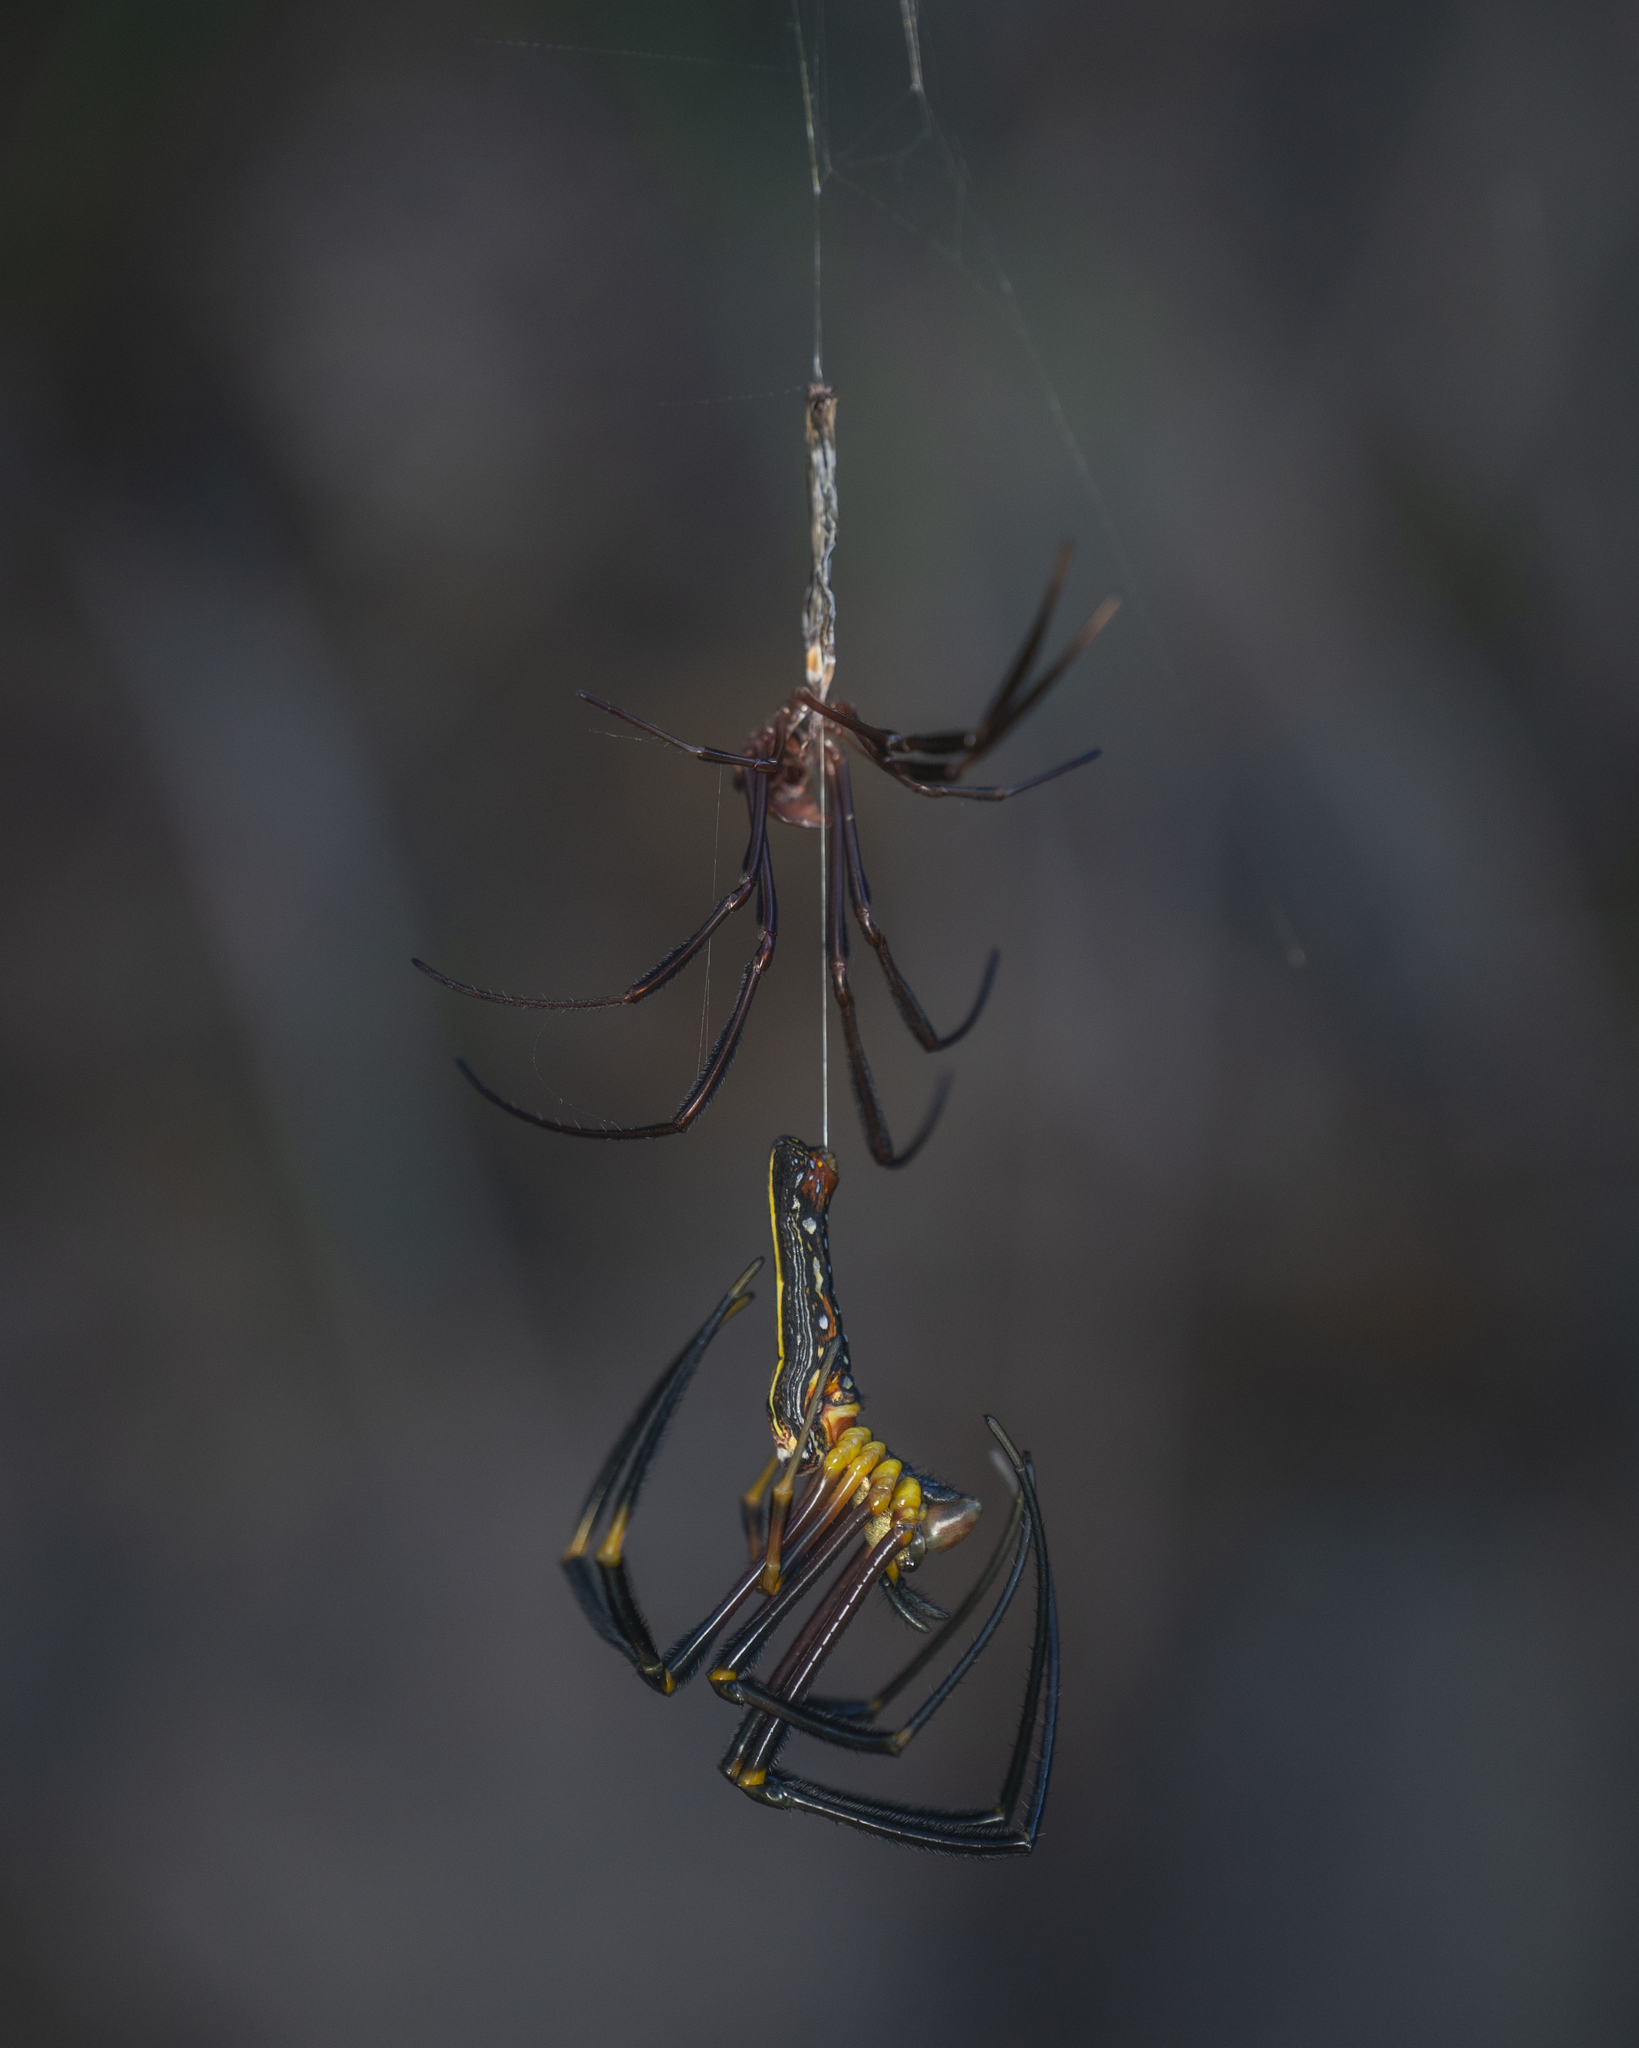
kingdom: Animalia
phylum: Arthropoda
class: Arachnida
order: Araneae
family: Araneidae
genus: Nephila
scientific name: Nephila pilipes
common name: Giant golden orb weaver
